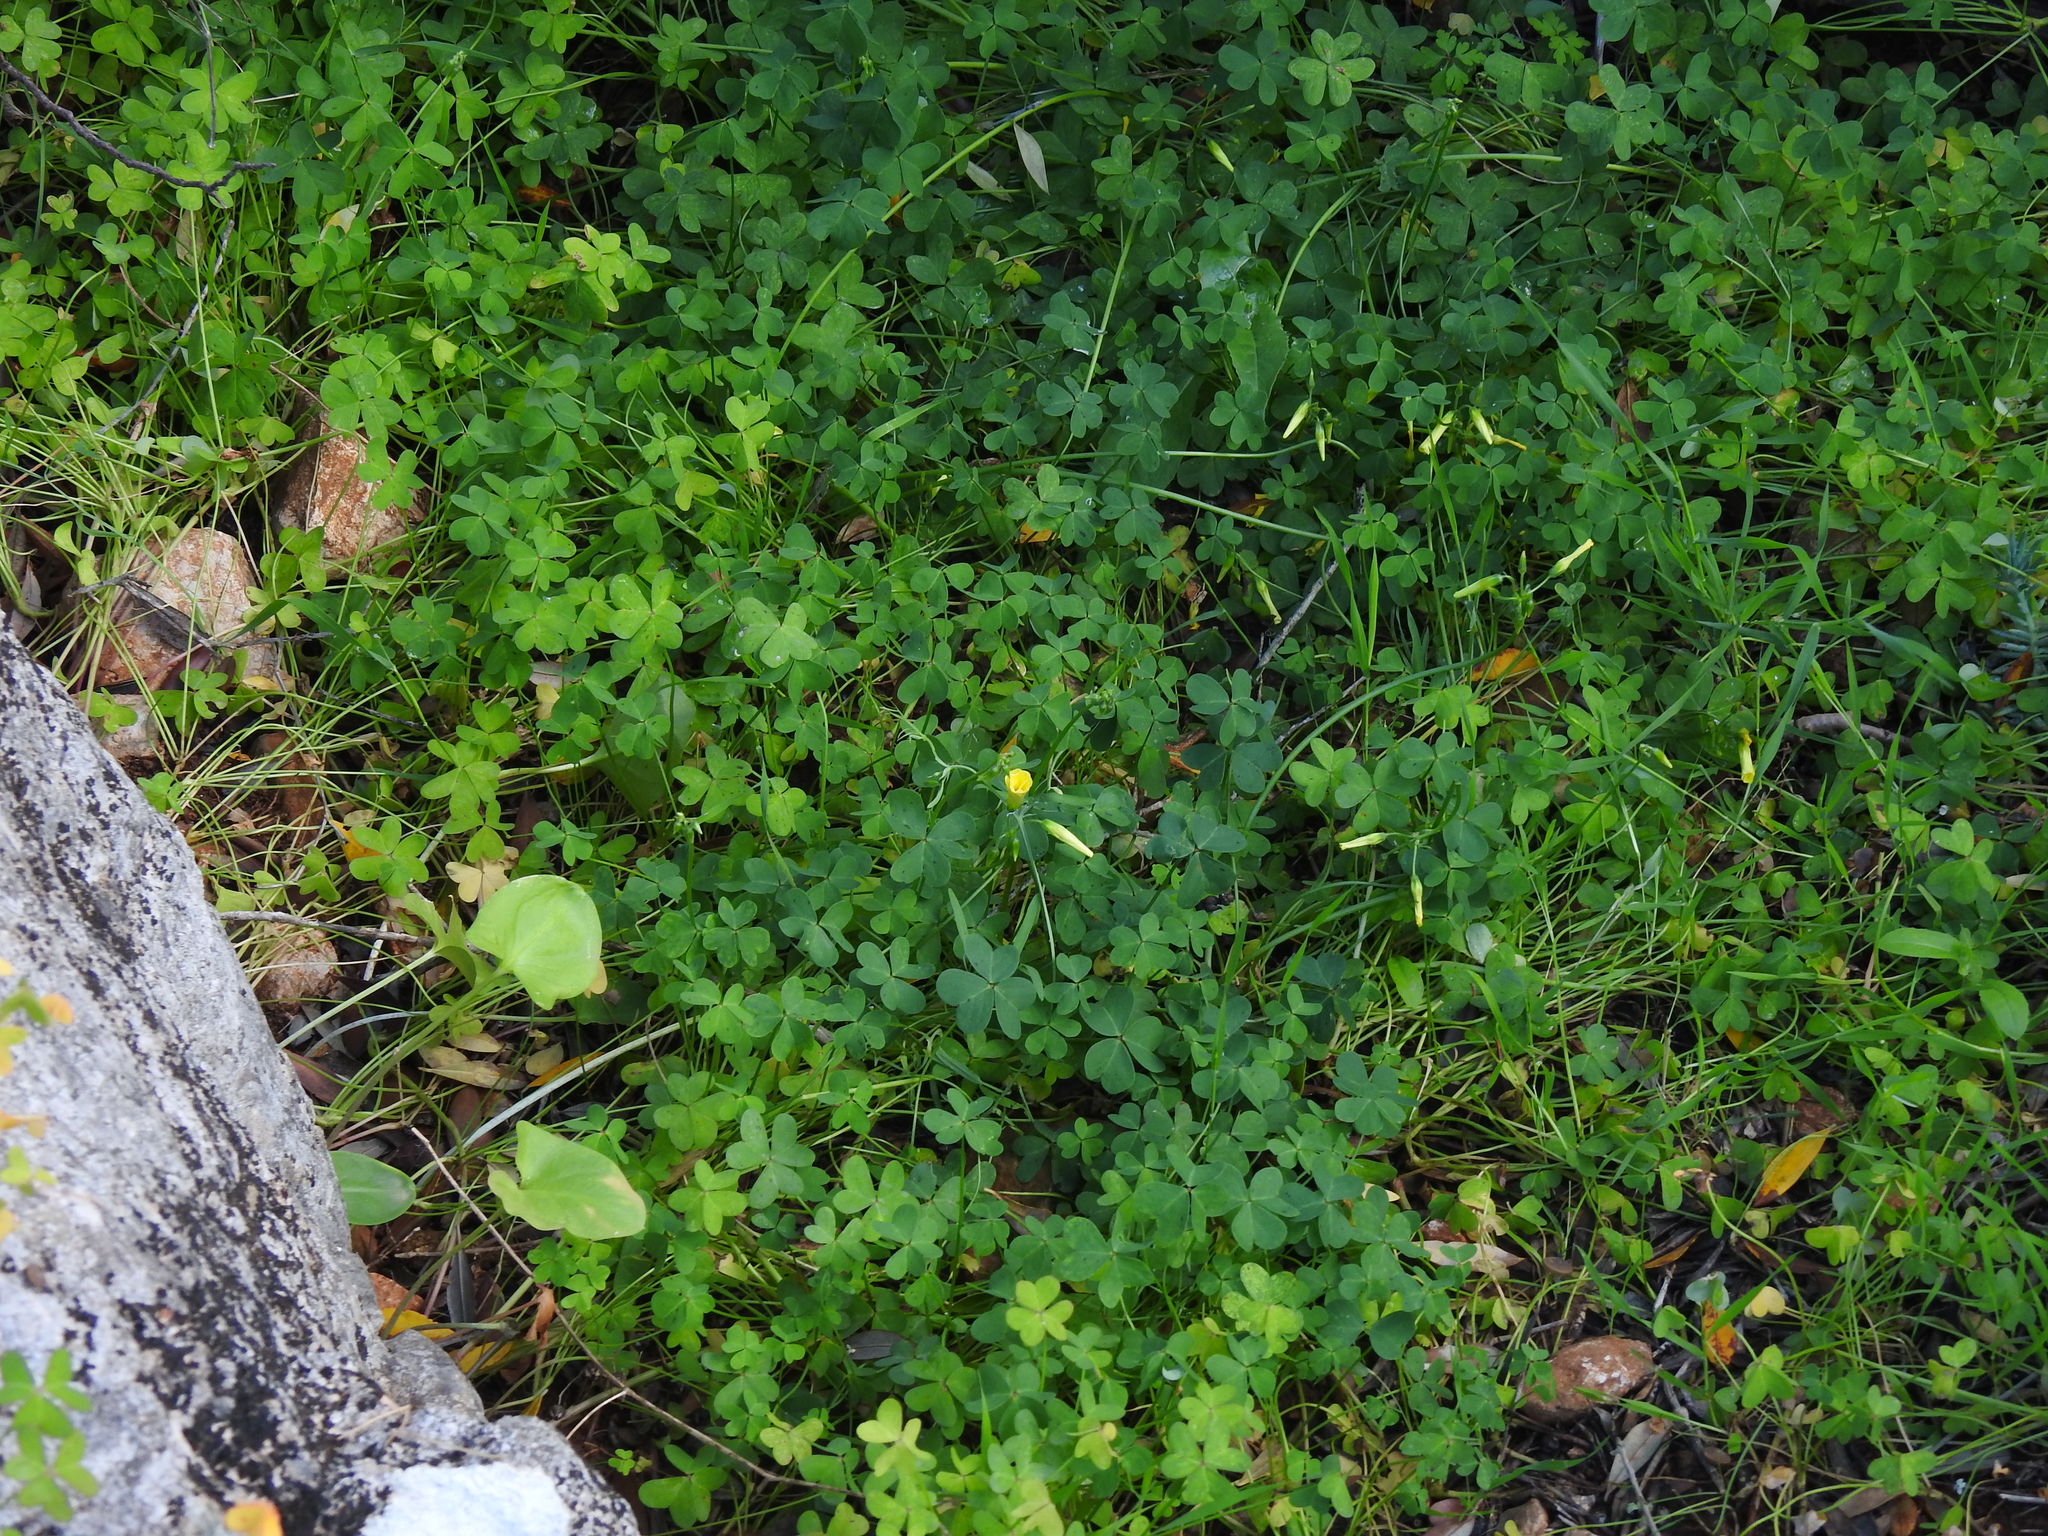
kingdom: Plantae
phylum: Tracheophyta
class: Magnoliopsida
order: Oxalidales
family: Oxalidaceae
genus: Oxalis
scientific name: Oxalis pes-caprae
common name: Bermuda-buttercup
